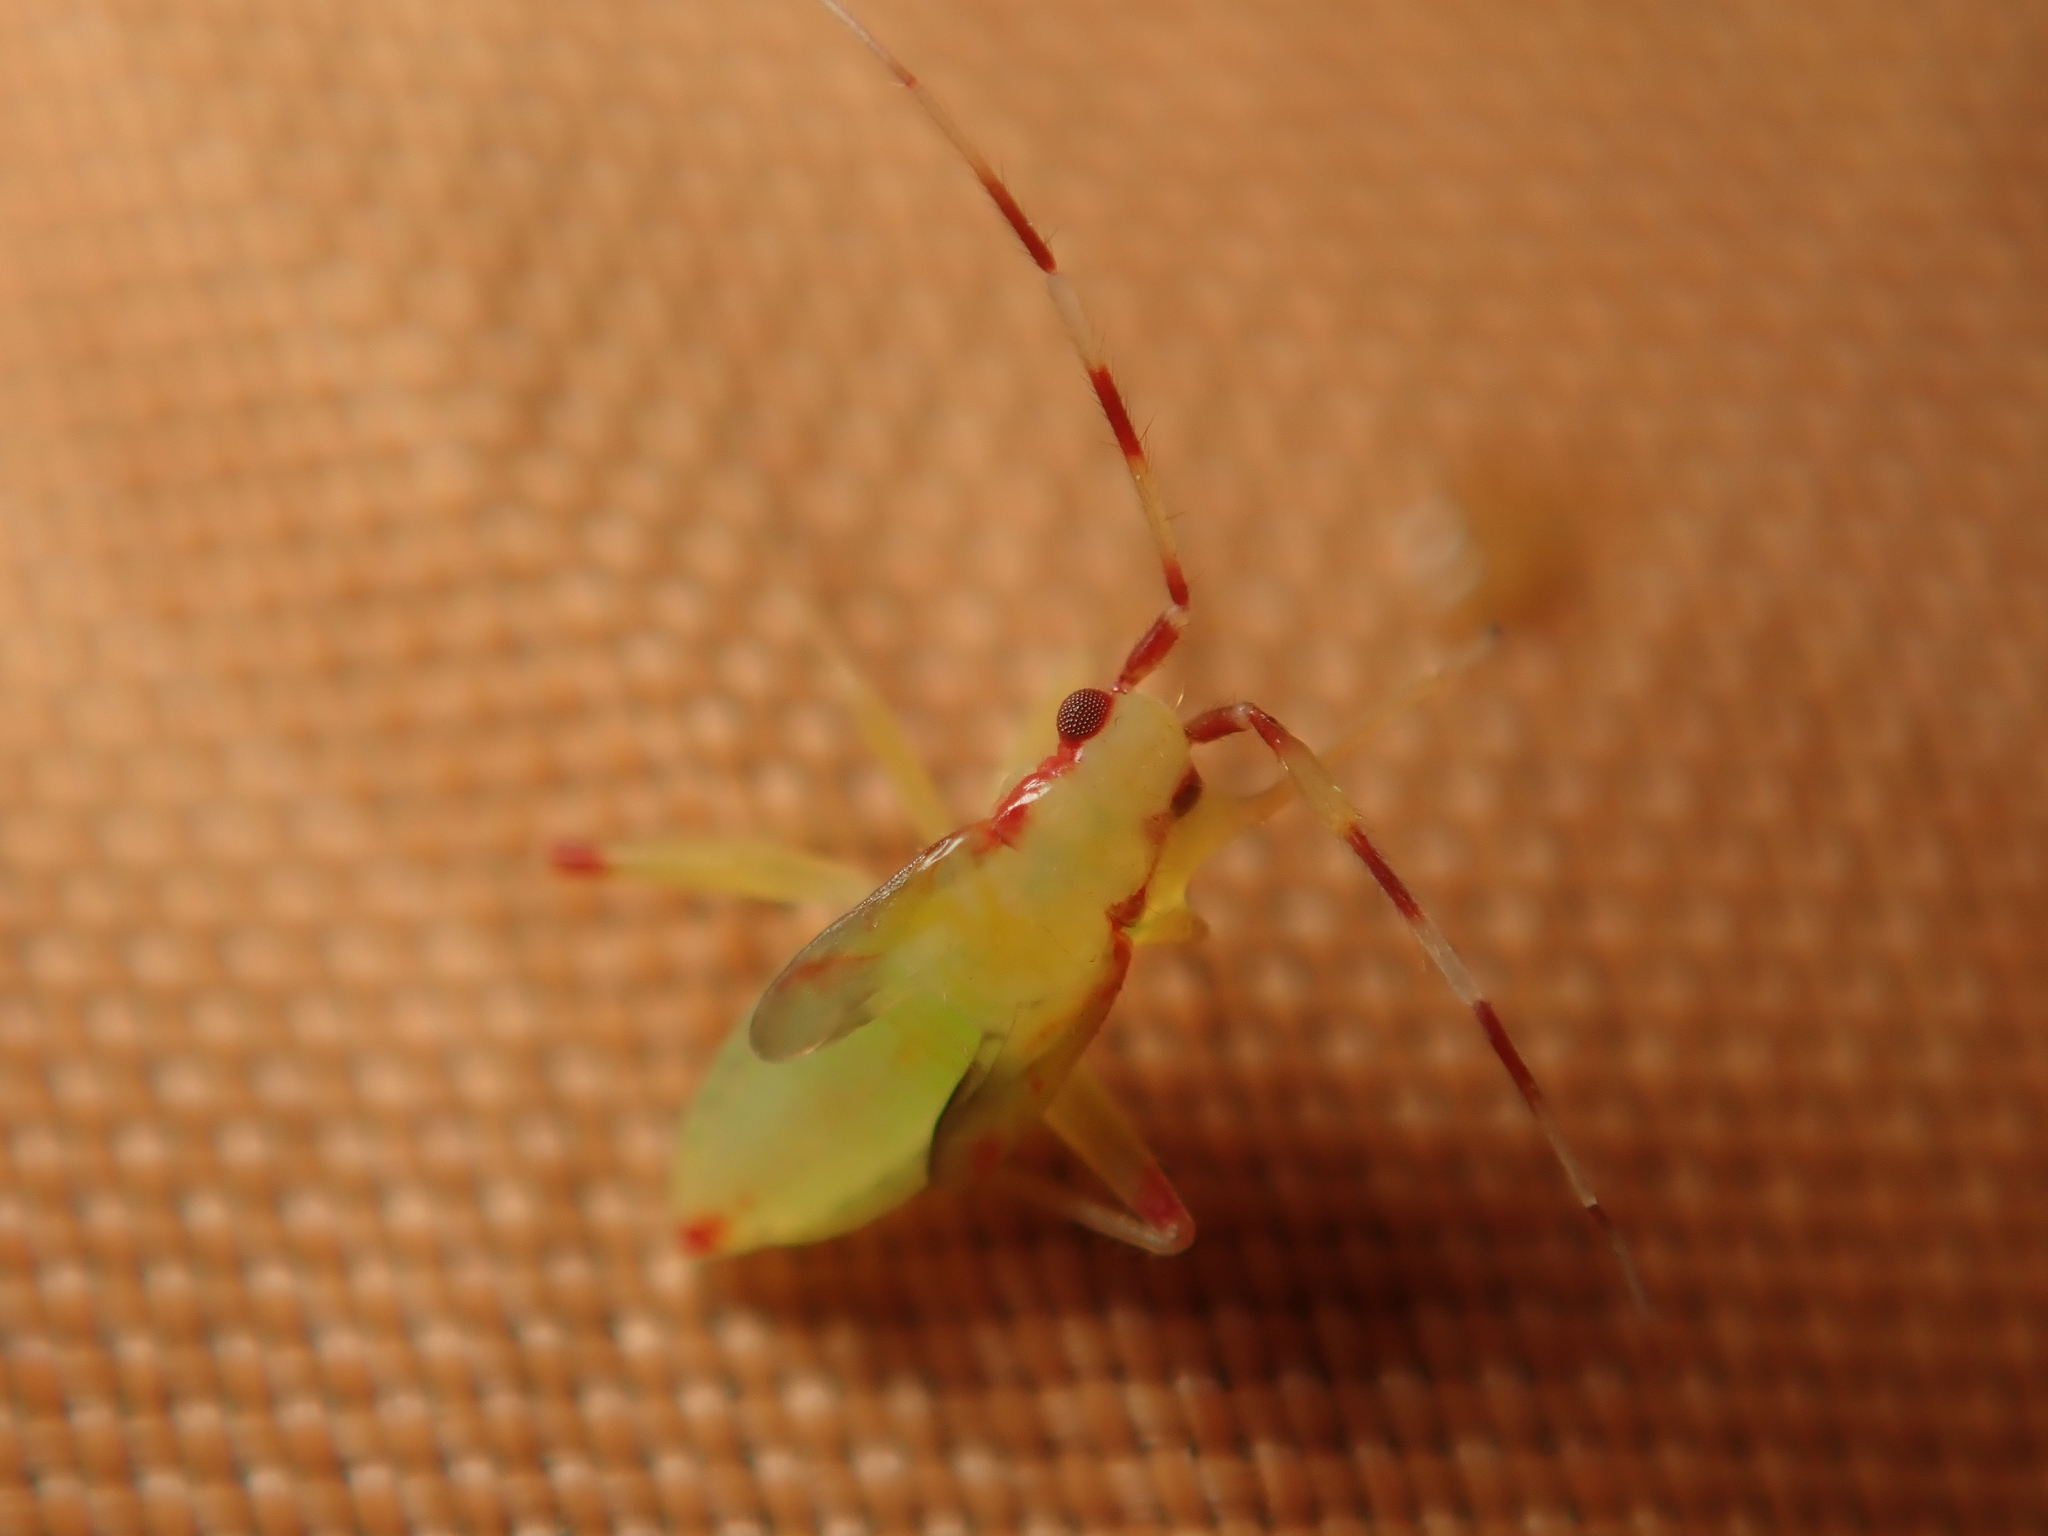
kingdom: Animalia
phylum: Arthropoda
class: Insecta
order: Hemiptera
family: Miridae
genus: Campyloneura
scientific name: Campyloneura virgula
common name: Predatory bug
